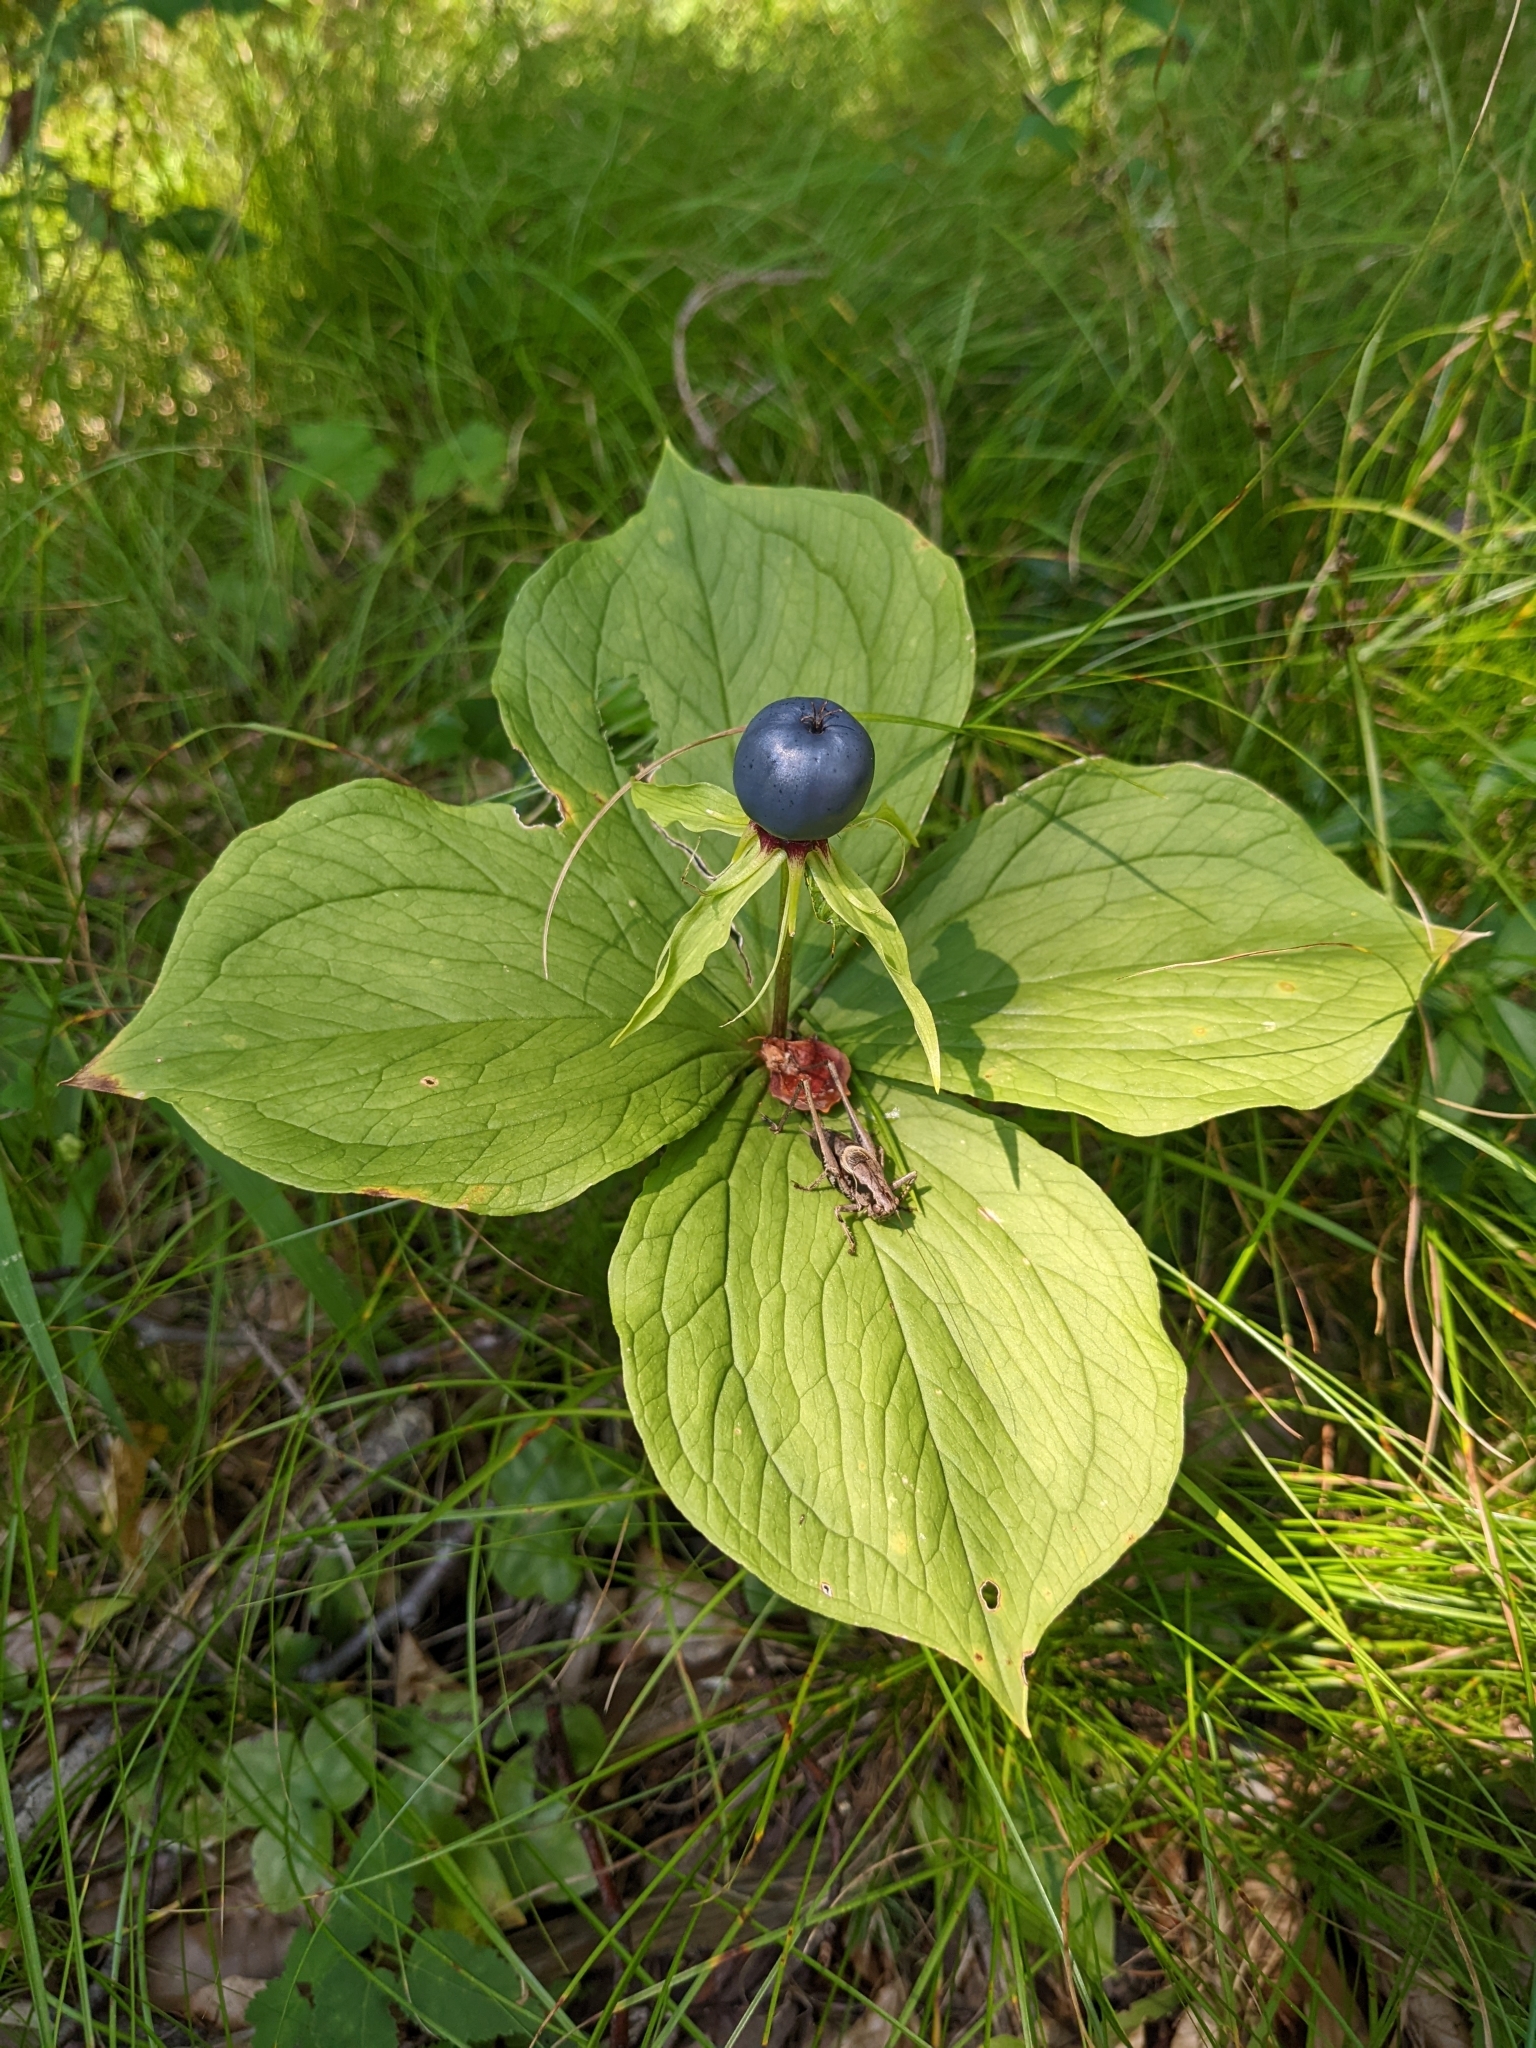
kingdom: Plantae
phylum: Tracheophyta
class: Liliopsida
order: Liliales
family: Melanthiaceae
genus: Paris
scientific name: Paris quadrifolia
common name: Herb-paris
